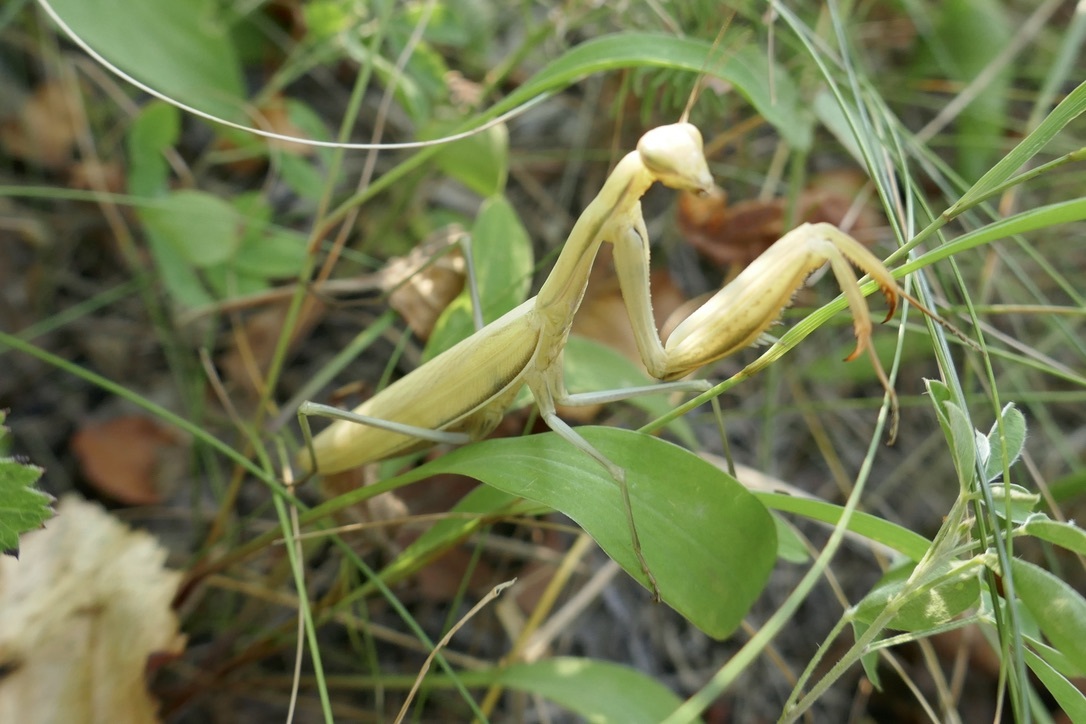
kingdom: Animalia
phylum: Arthropoda
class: Insecta
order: Mantodea
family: Mantidae
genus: Mantis
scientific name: Mantis religiosa
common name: Praying mantis
